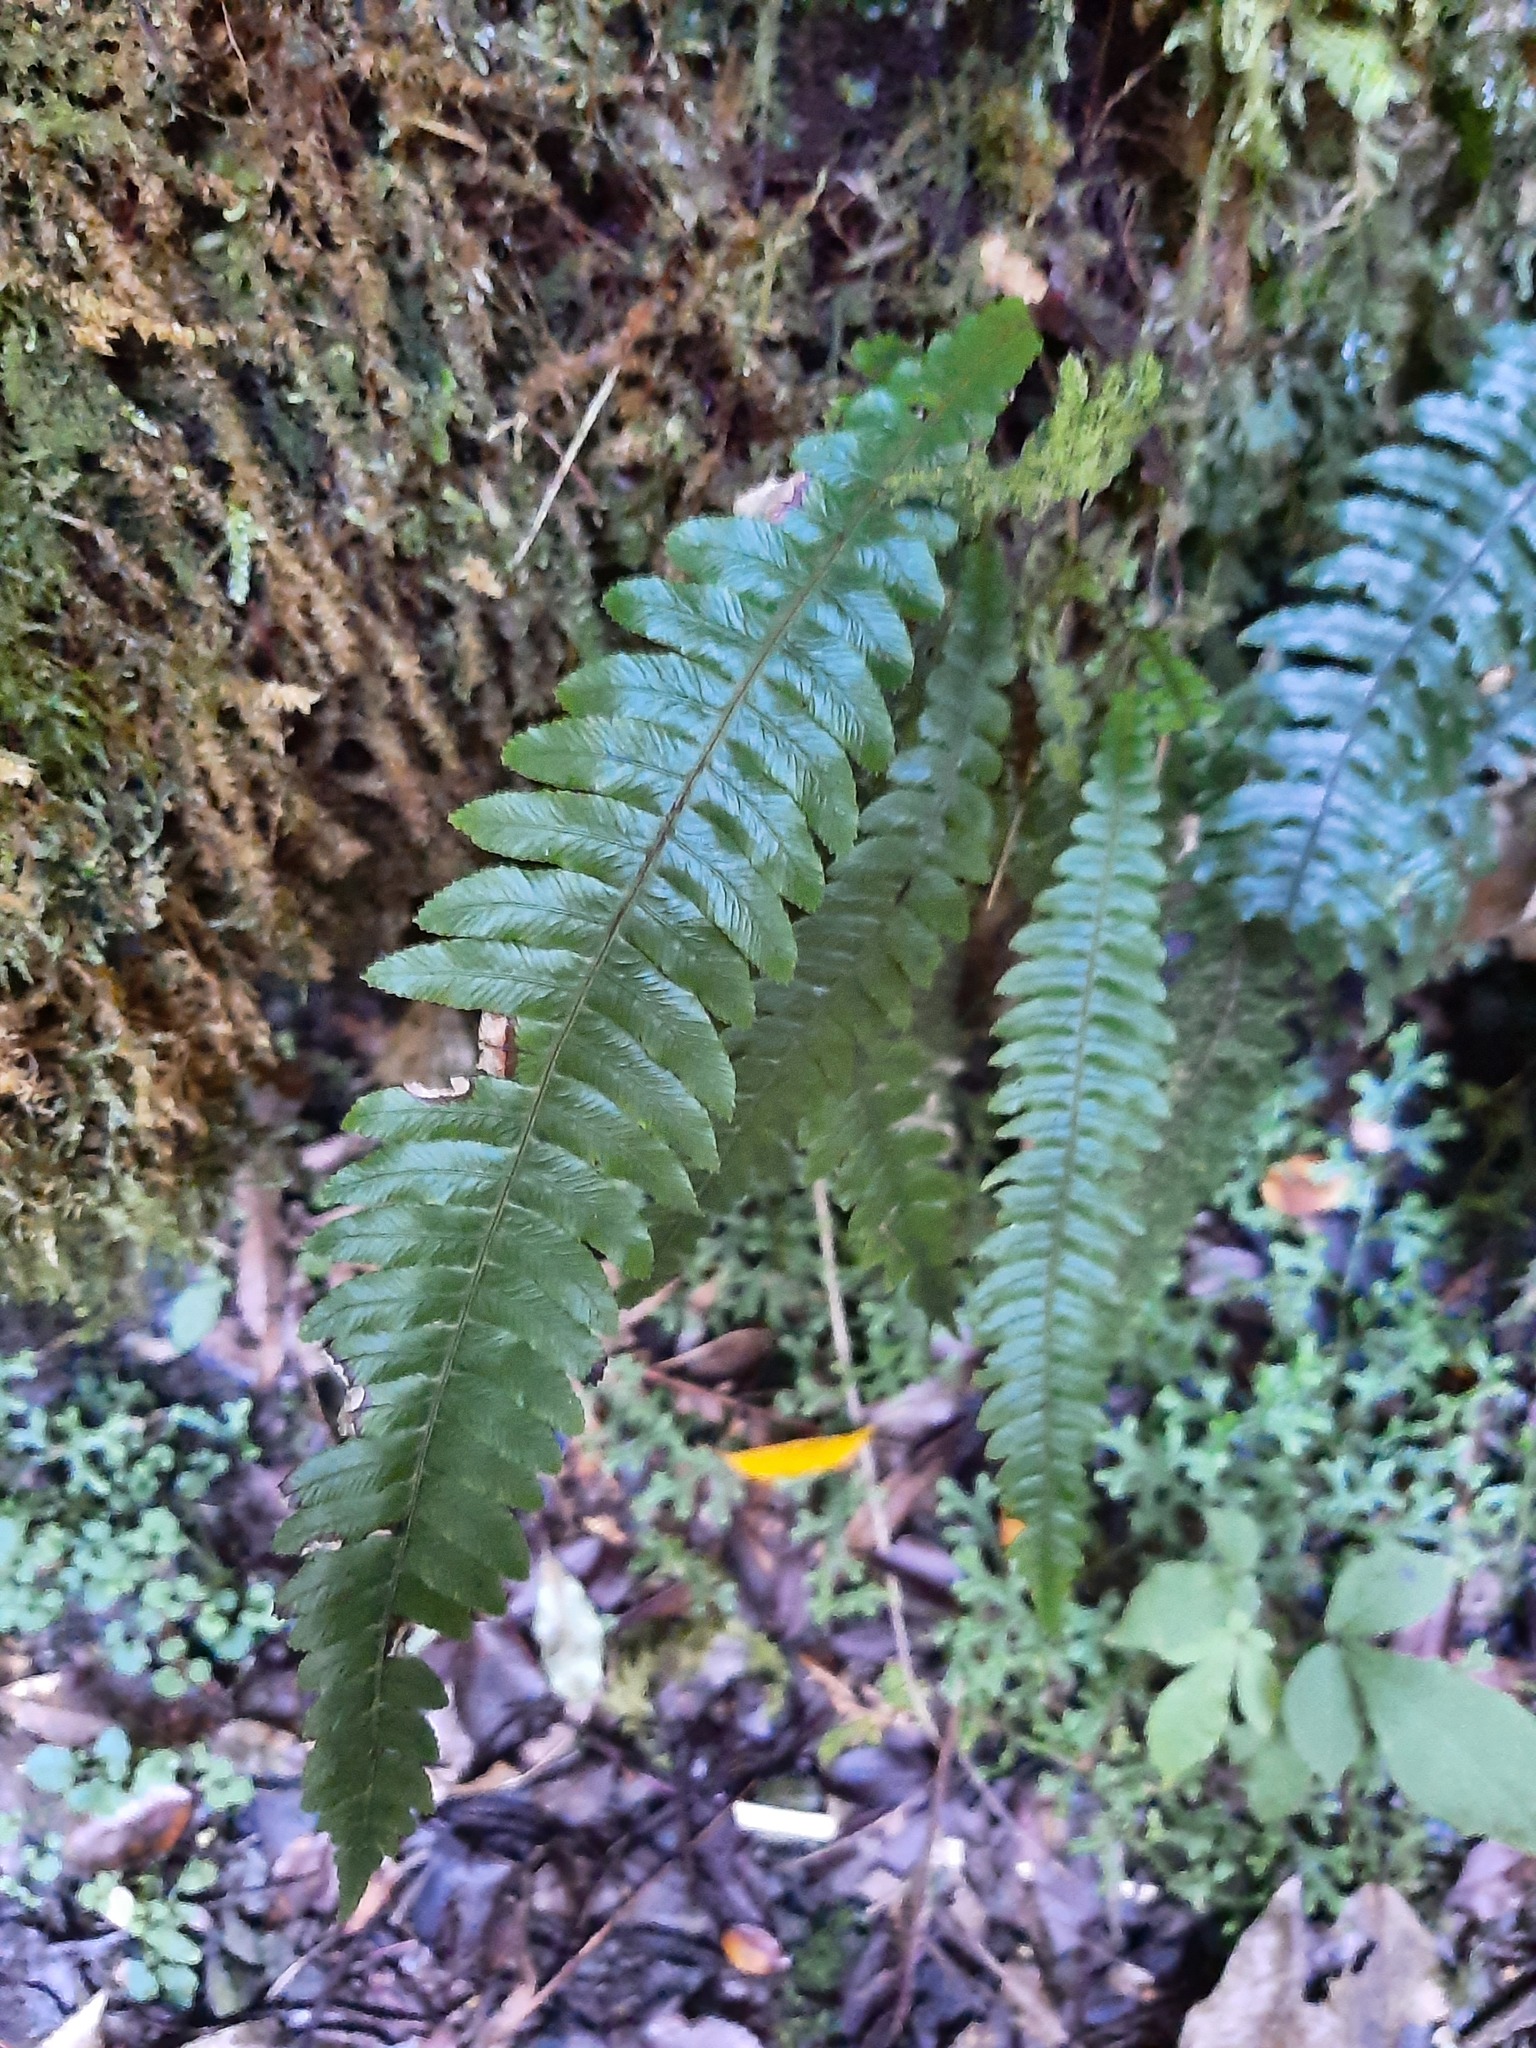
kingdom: Plantae
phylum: Tracheophyta
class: Polypodiopsida
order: Polypodiales
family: Blechnaceae
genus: Austroblechnum
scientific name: Austroblechnum lanceolatum
